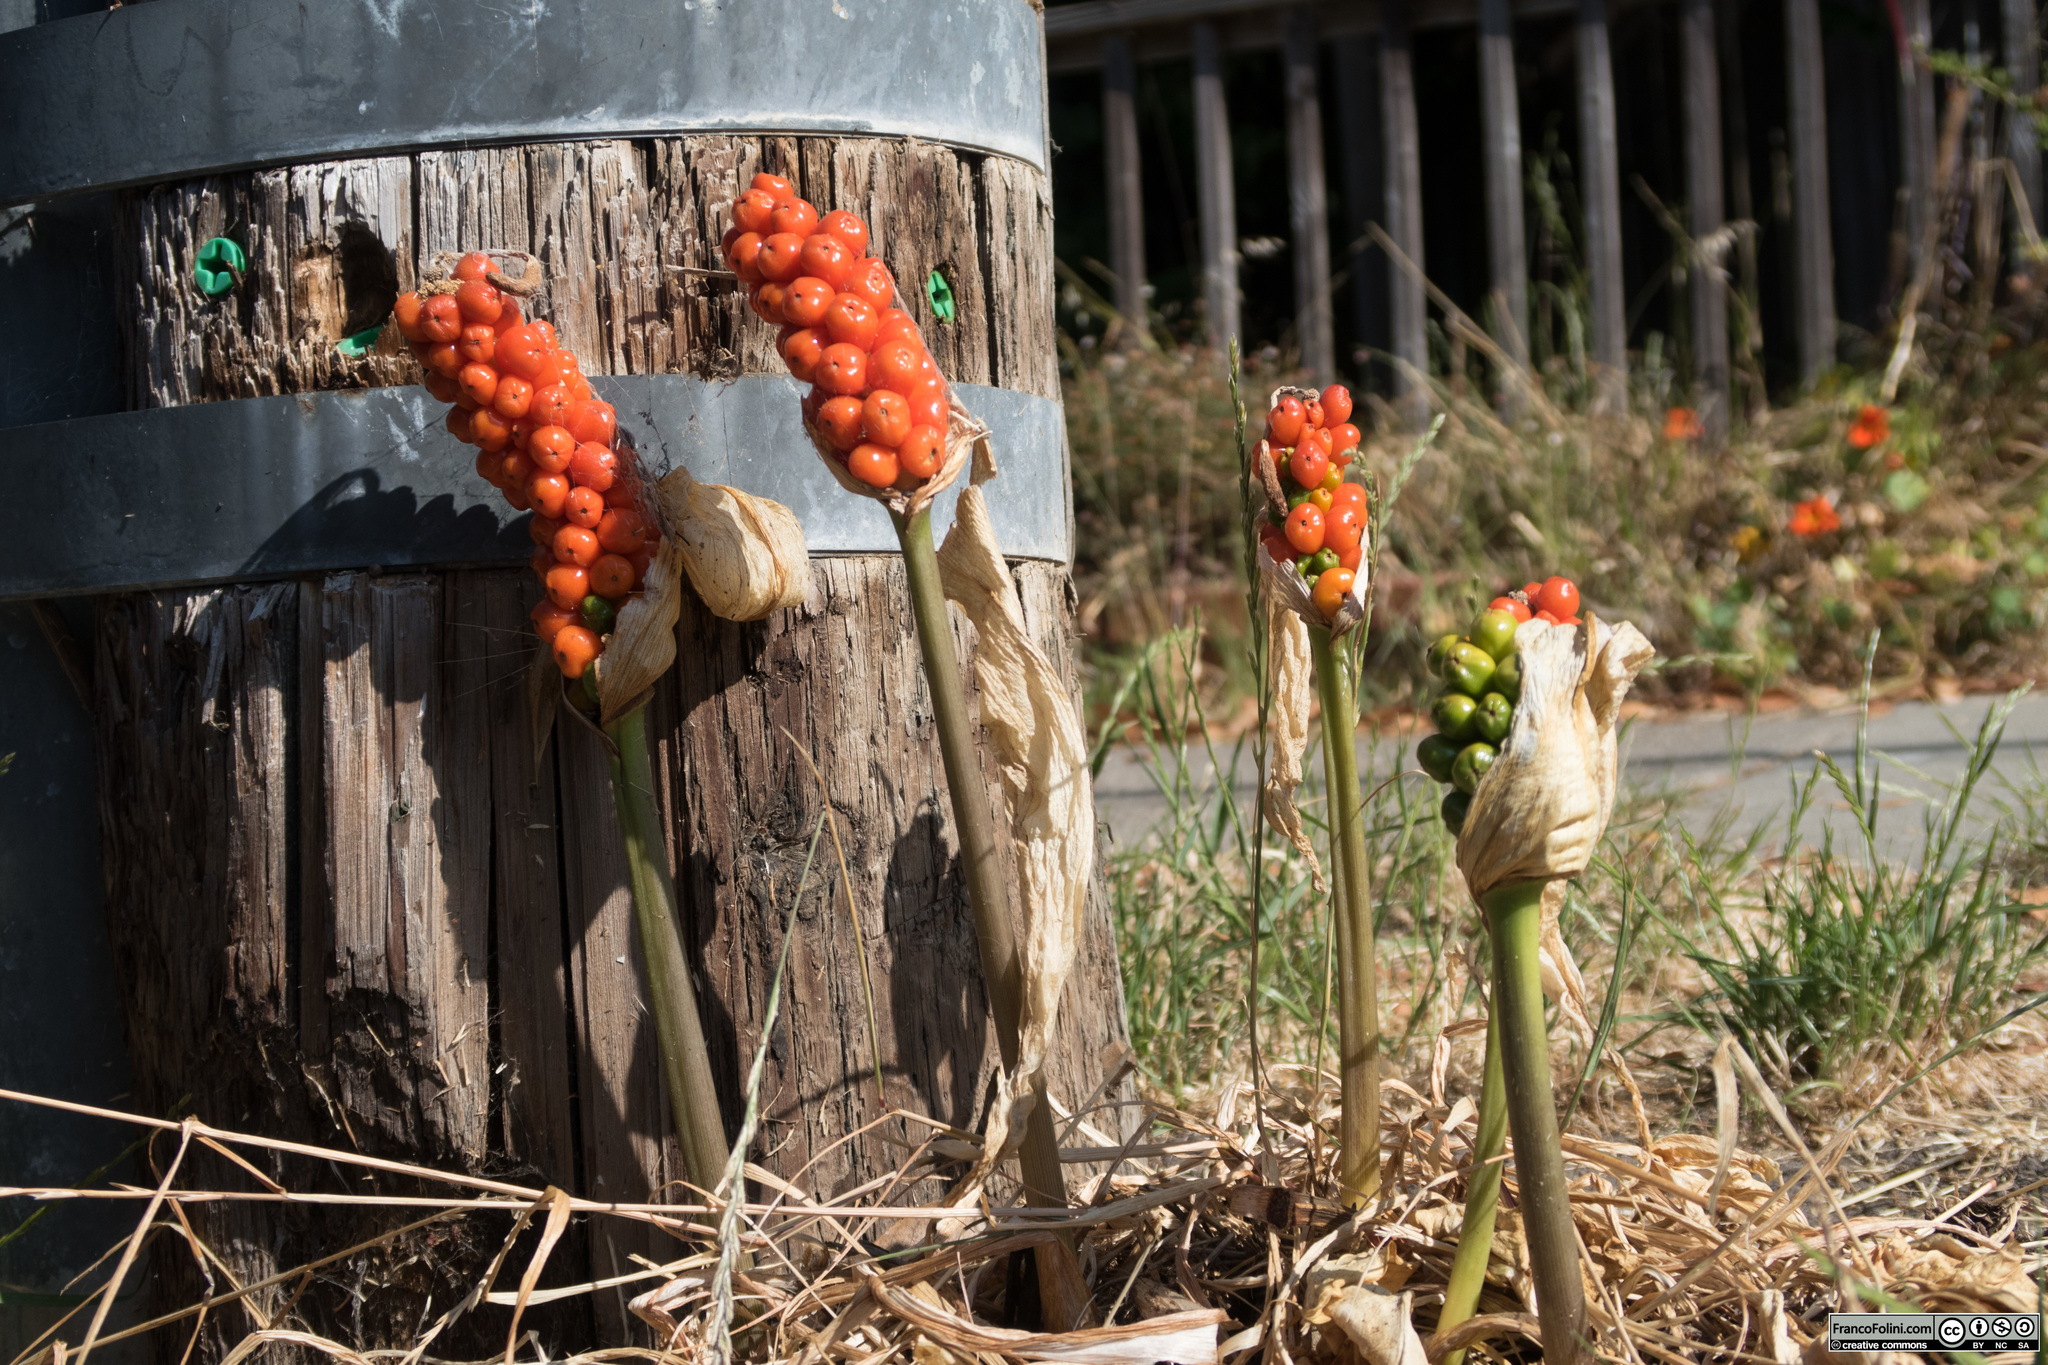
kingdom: Plantae
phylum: Tracheophyta
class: Liliopsida
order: Alismatales
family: Araceae
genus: Arum
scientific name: Arum italicum
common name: Italian lords-and-ladies
